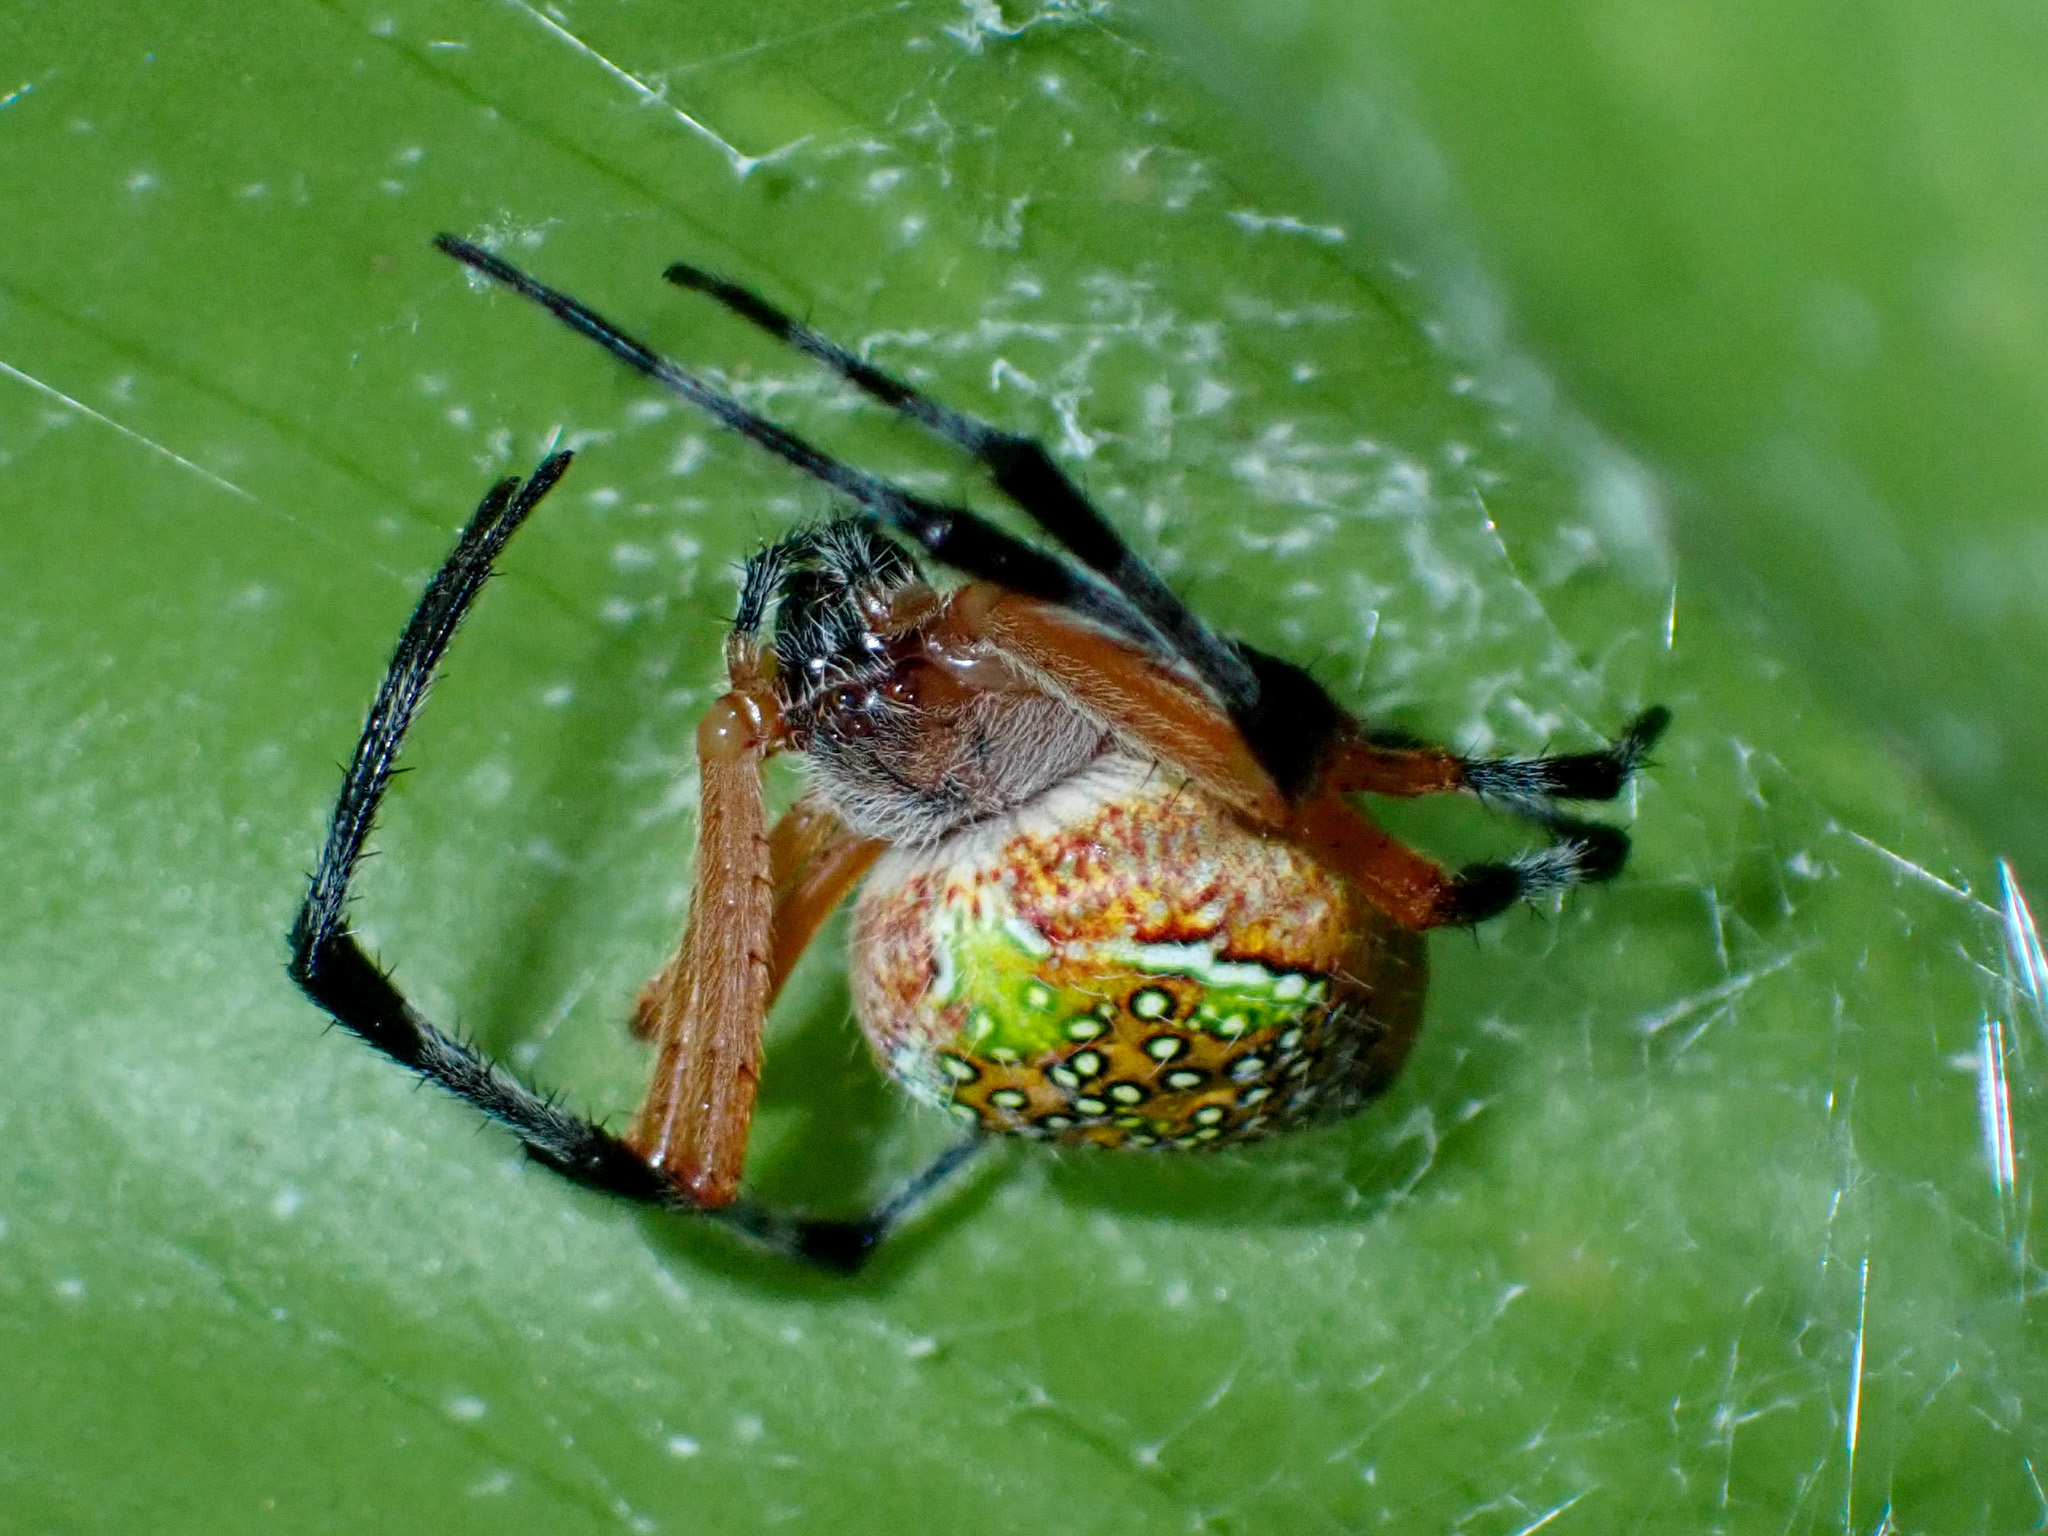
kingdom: Animalia
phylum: Arthropoda
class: Arachnida
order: Araneae
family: Araneidae
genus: Eriophora
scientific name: Eriophora nephiloides
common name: Orb weavers
